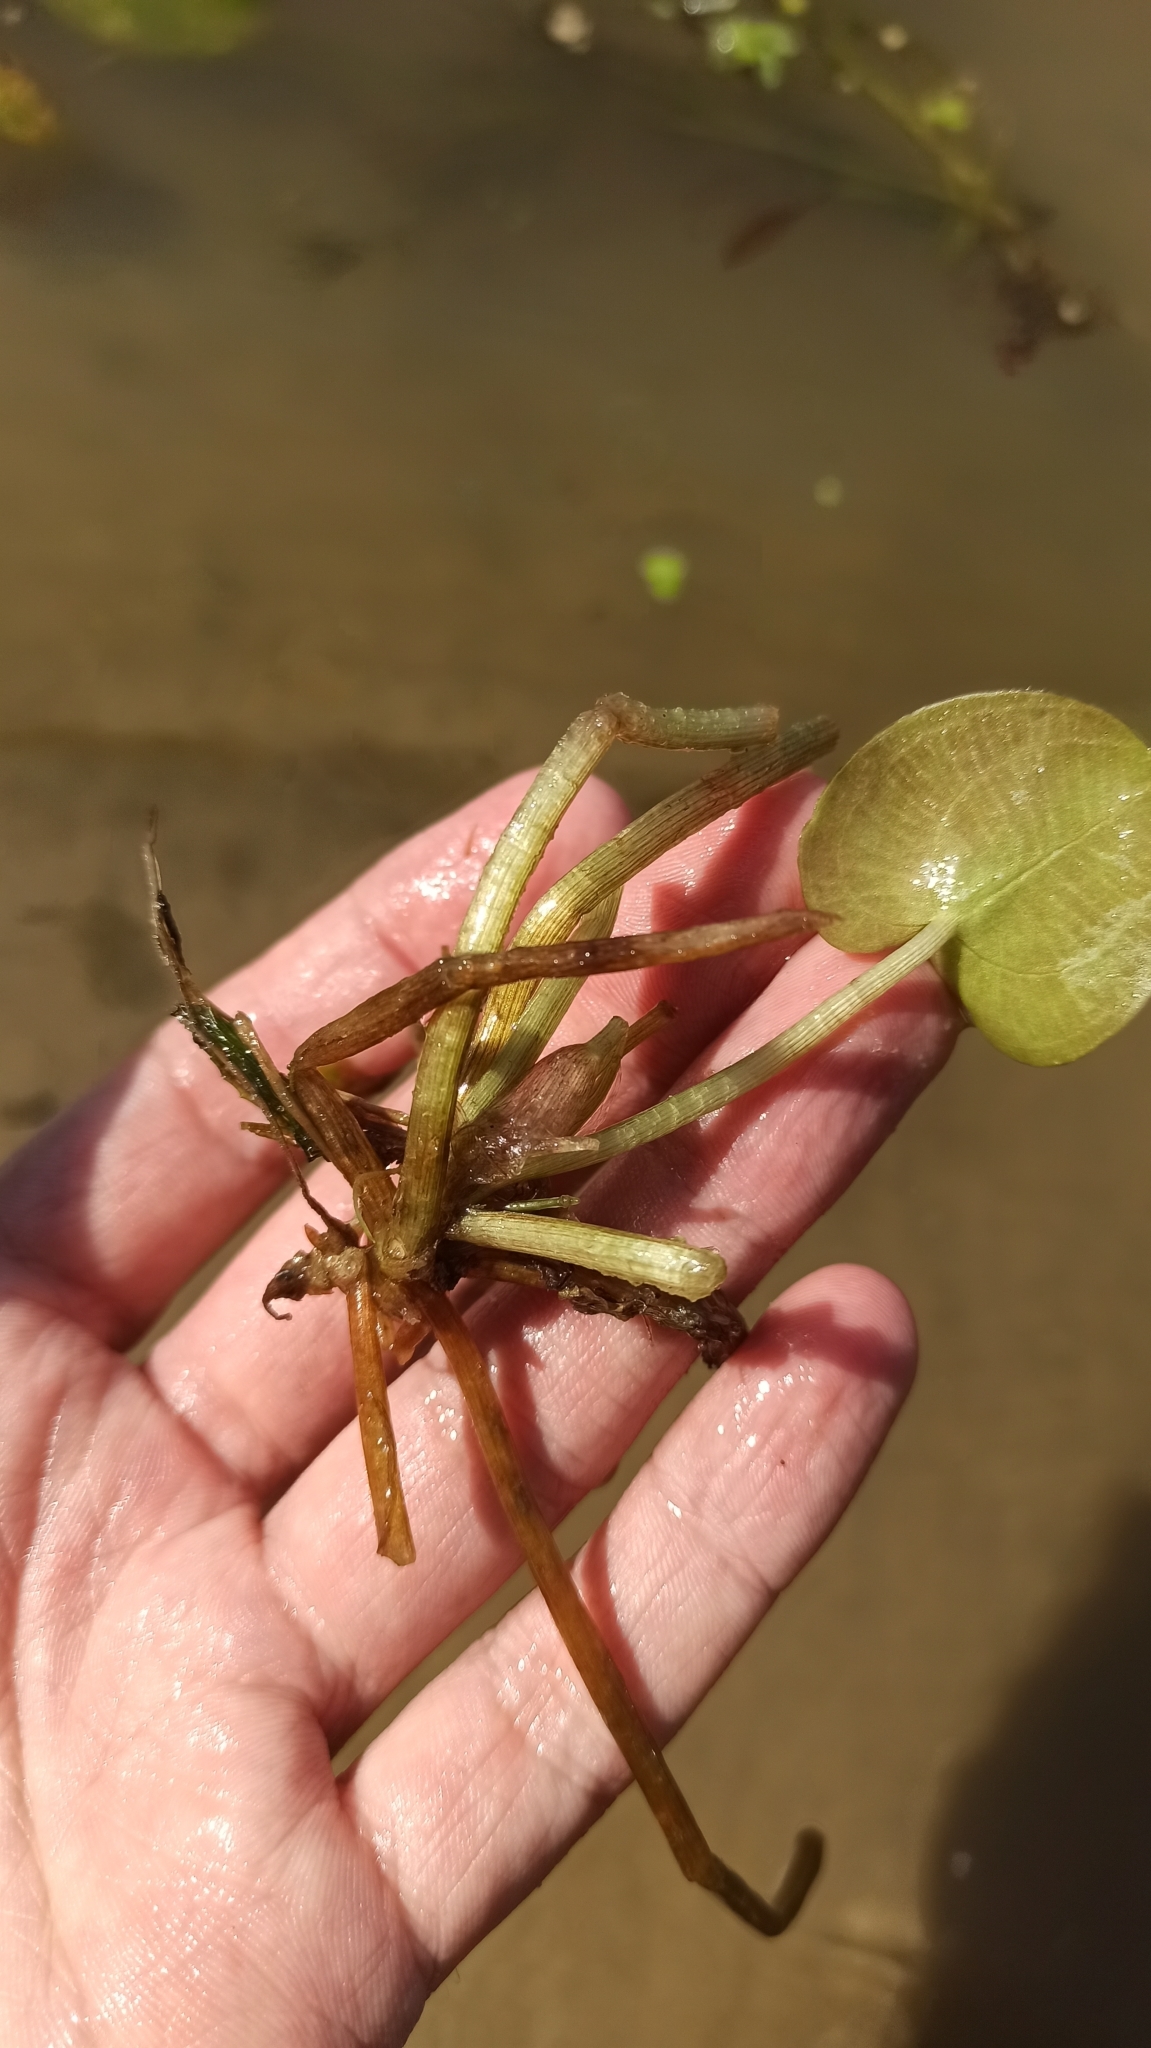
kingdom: Plantae
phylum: Tracheophyta
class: Liliopsida
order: Alismatales
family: Hydrocharitaceae
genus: Hydrocharis
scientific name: Hydrocharis morsus-ranae
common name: Frogbit
